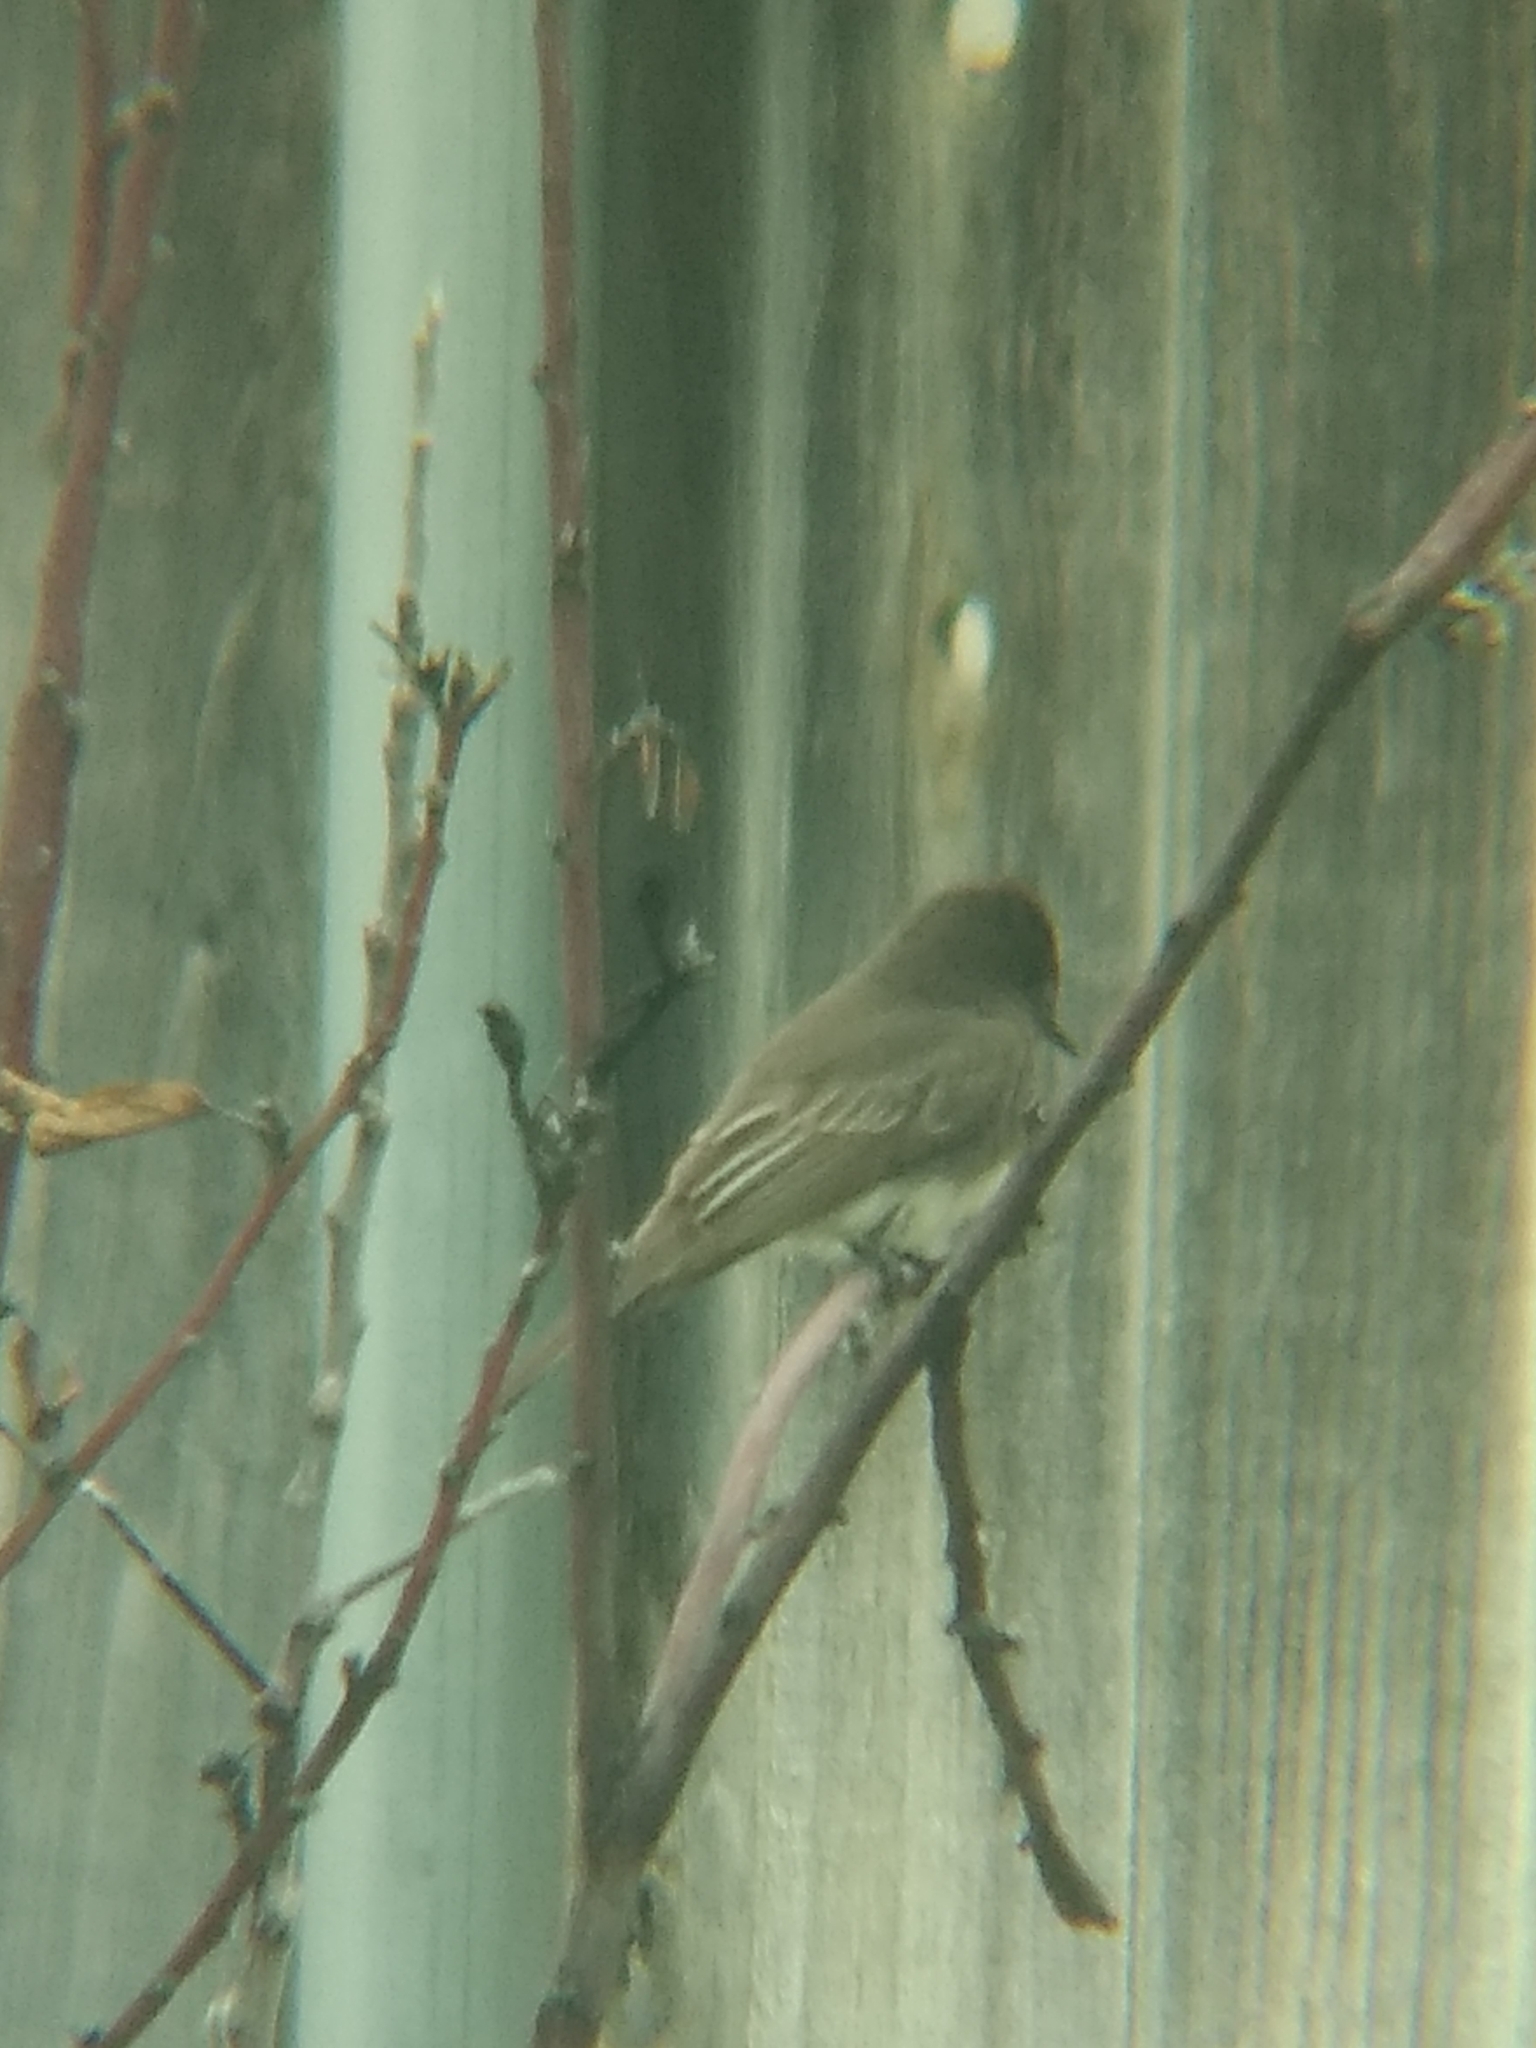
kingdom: Animalia
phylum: Chordata
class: Aves
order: Passeriformes
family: Tyrannidae
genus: Sayornis
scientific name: Sayornis nigricans
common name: Black phoebe
